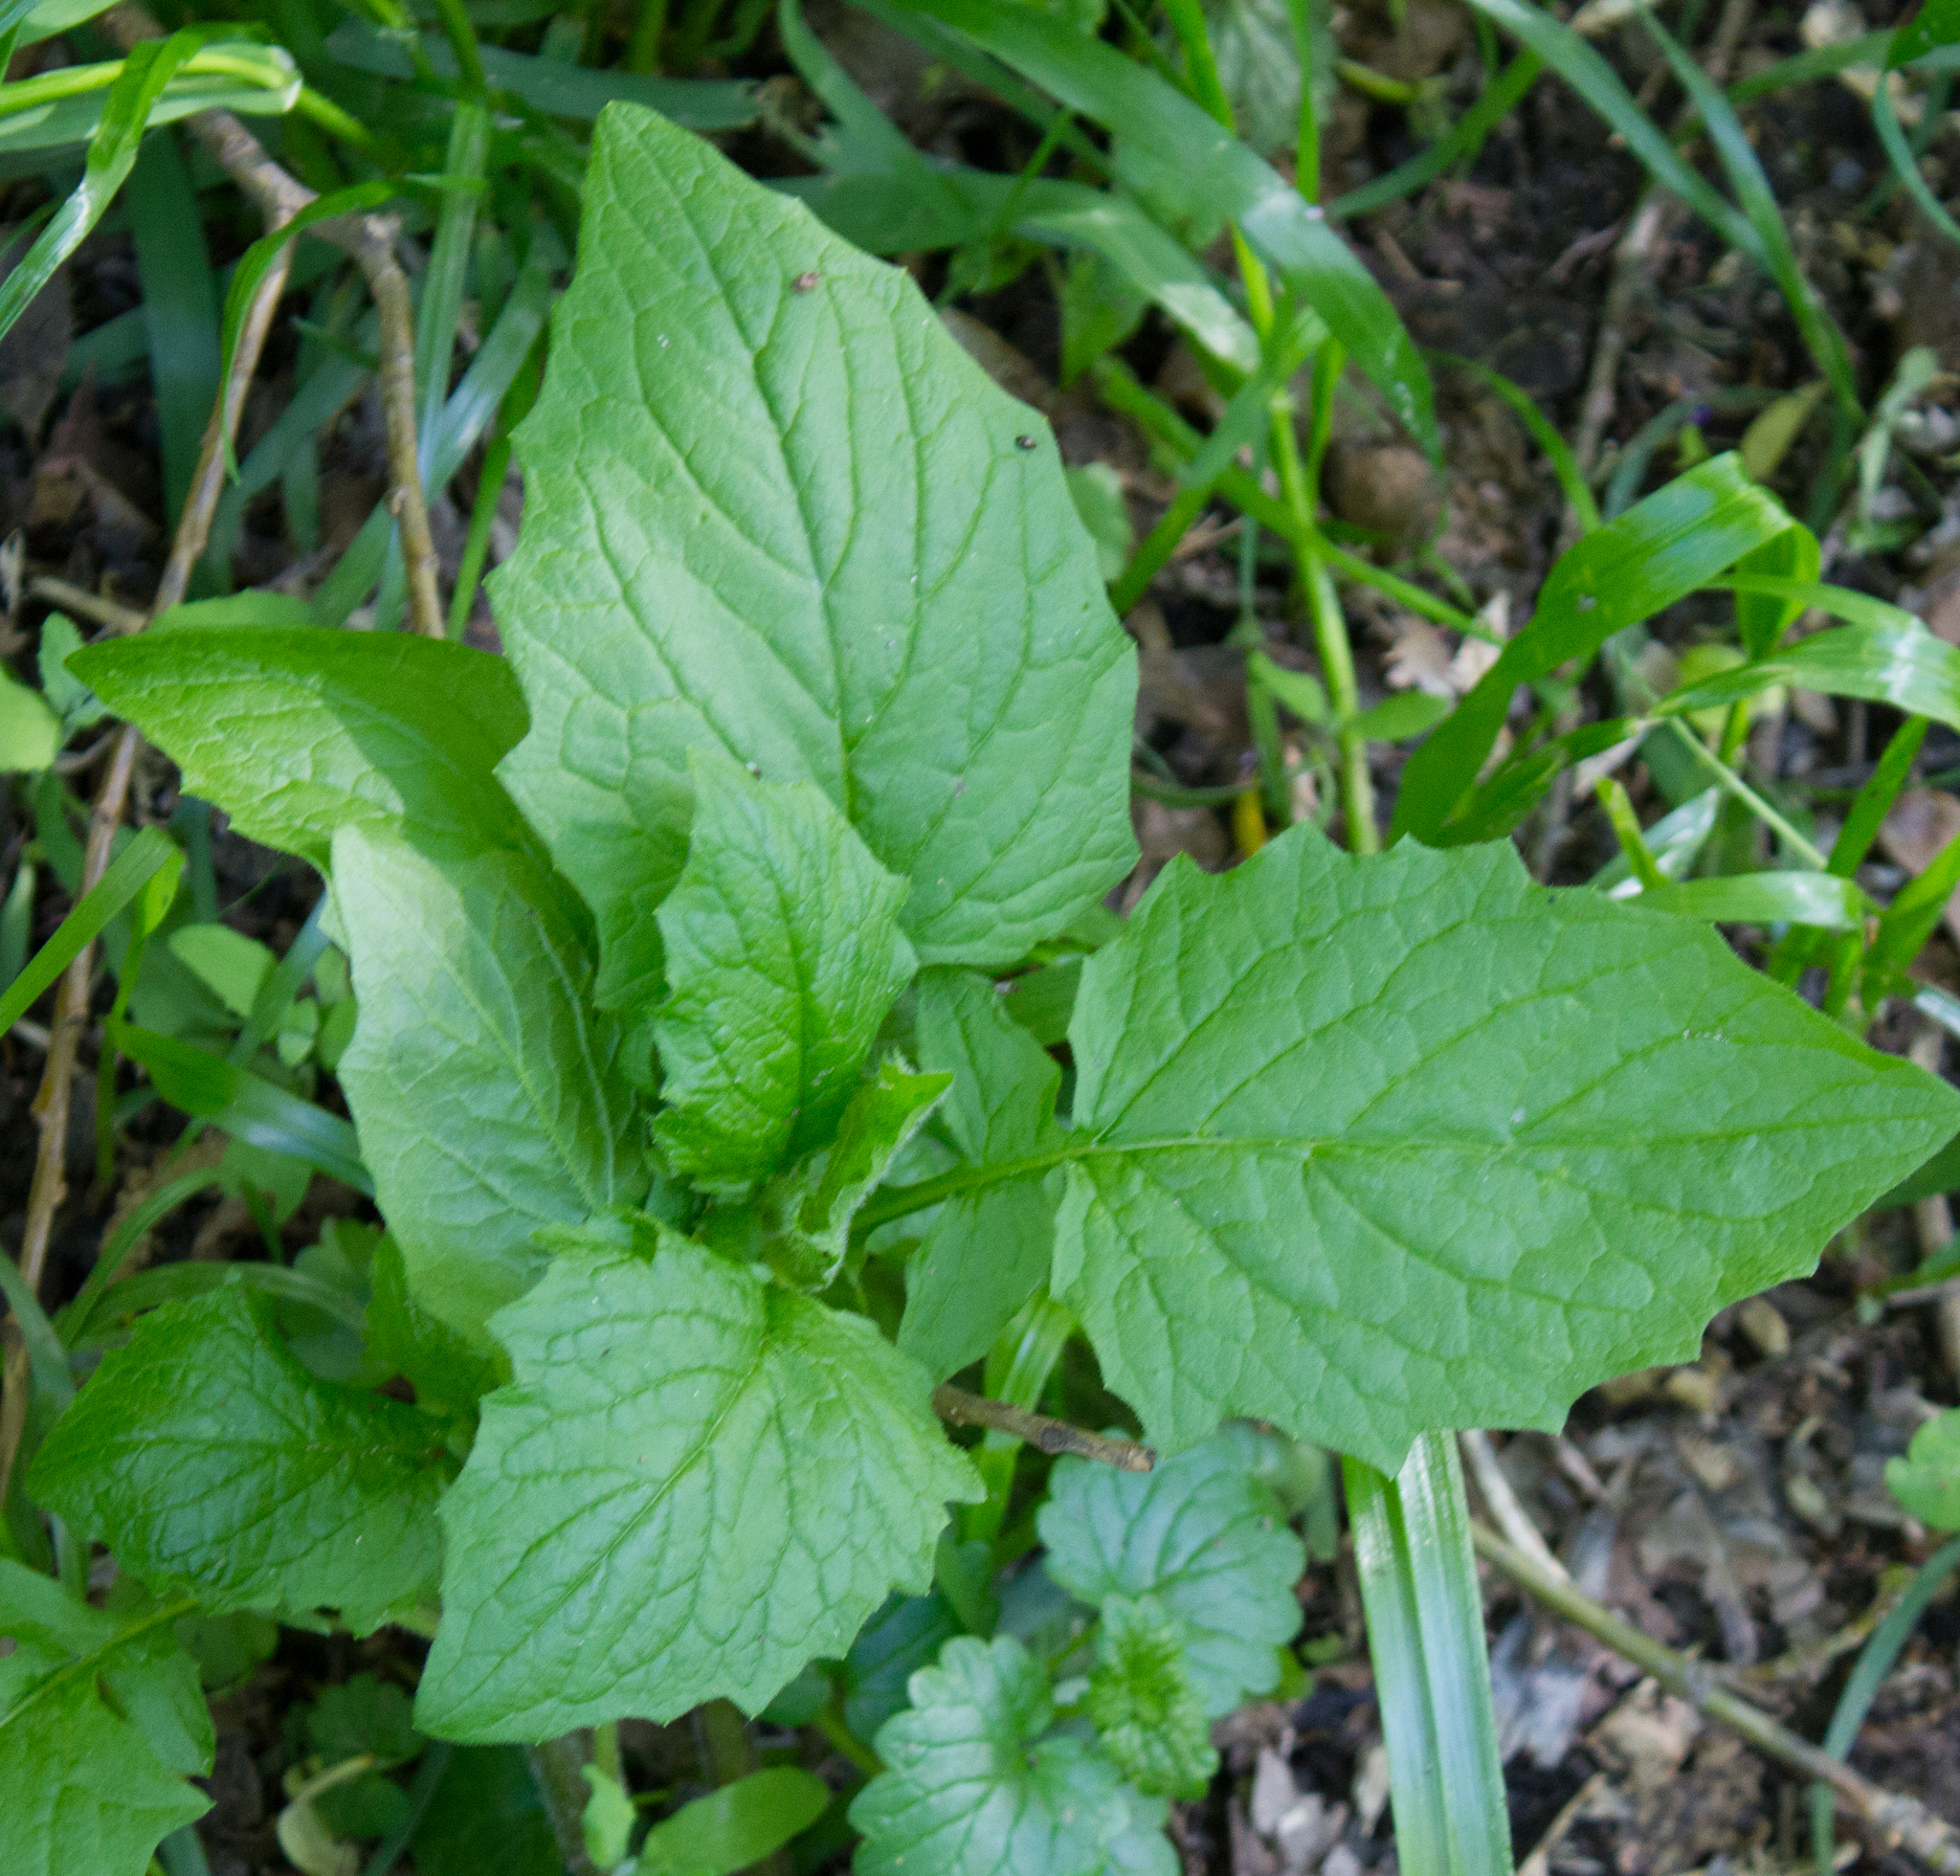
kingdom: Plantae
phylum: Tracheophyta
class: Magnoliopsida
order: Asterales
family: Asteraceae
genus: Lapsana
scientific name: Lapsana communis
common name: Nipplewort
